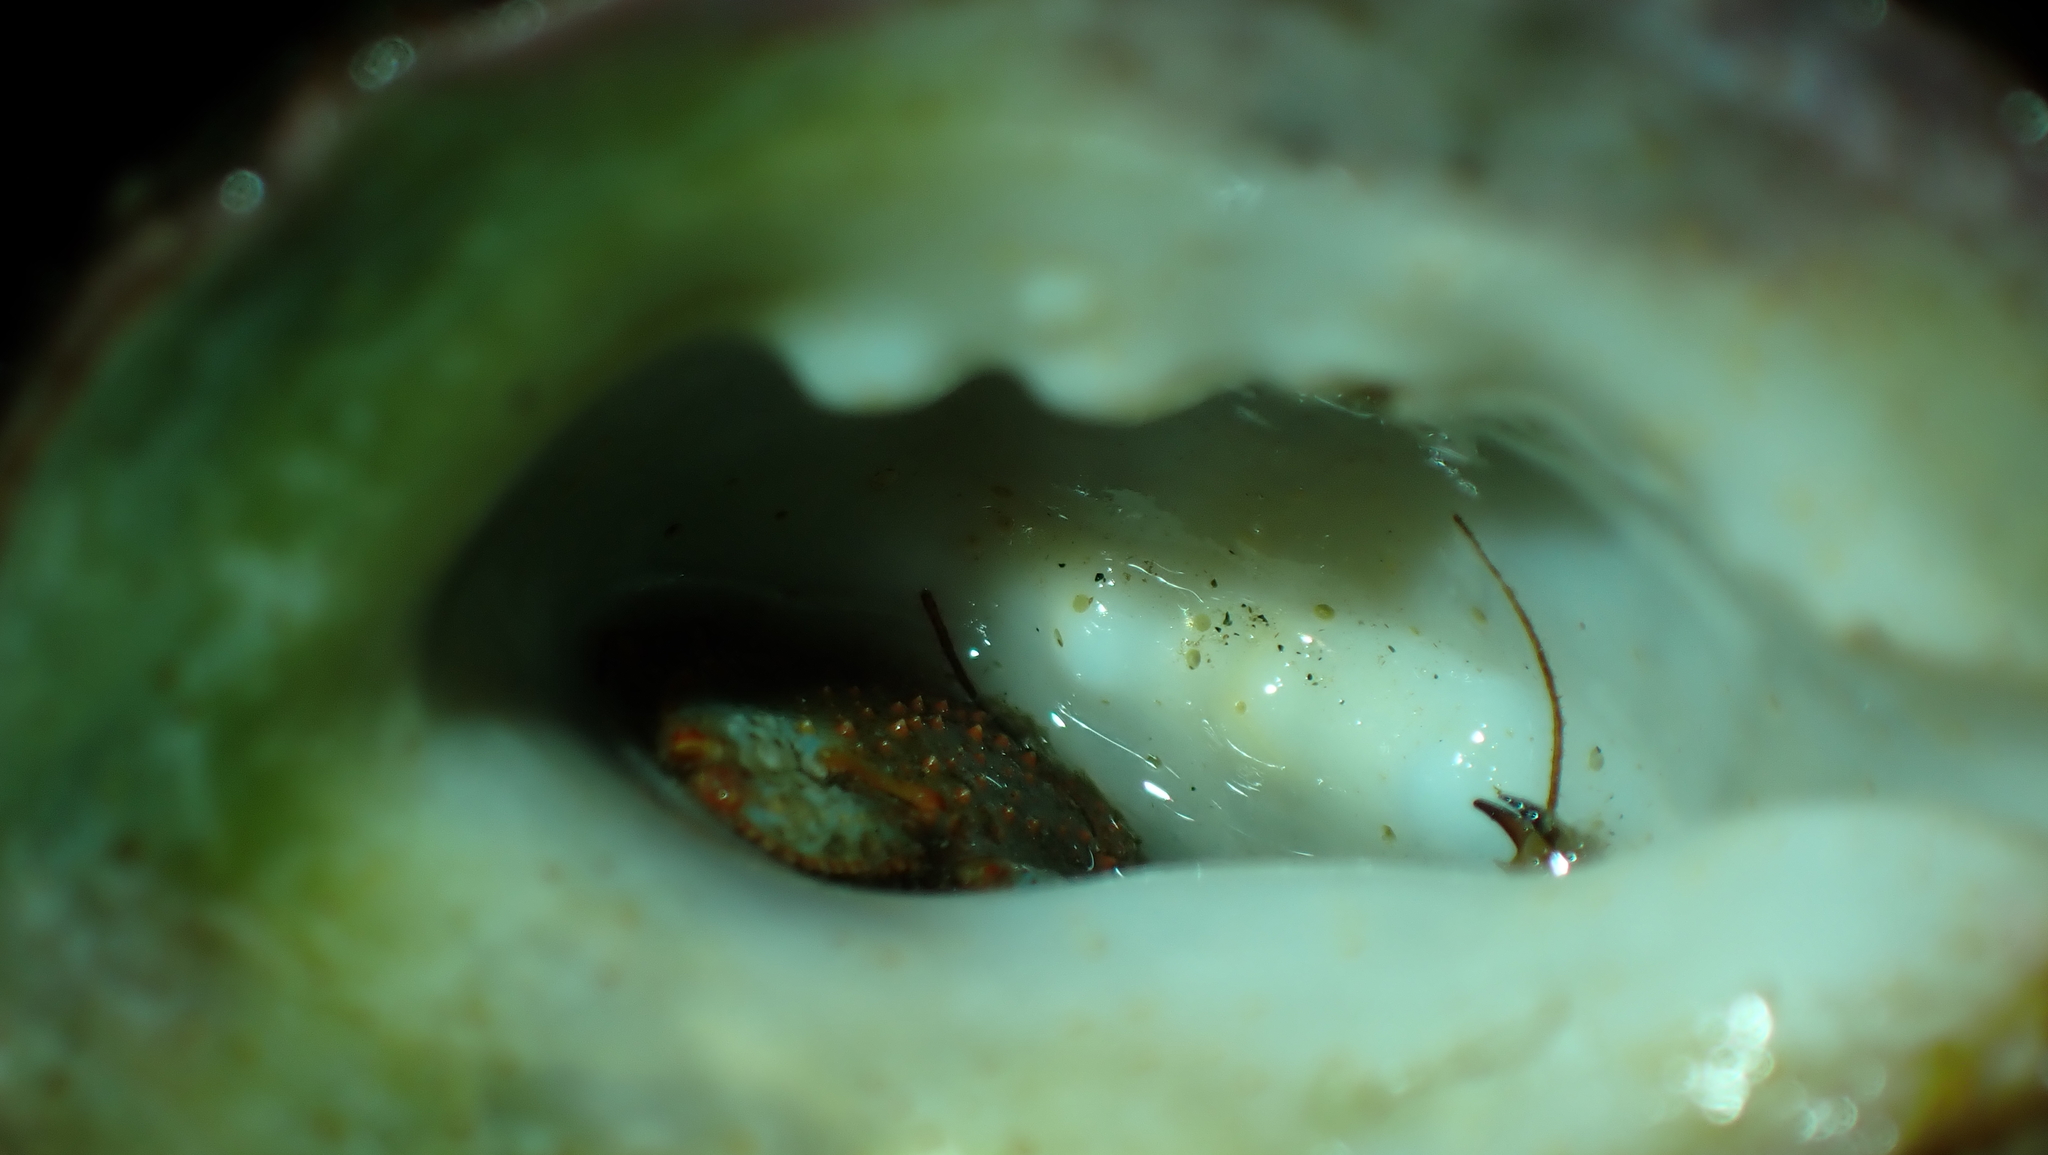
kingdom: Animalia
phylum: Arthropoda
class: Malacostraca
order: Decapoda
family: Paguridae
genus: Pagurus
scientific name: Pagurus beringanus
